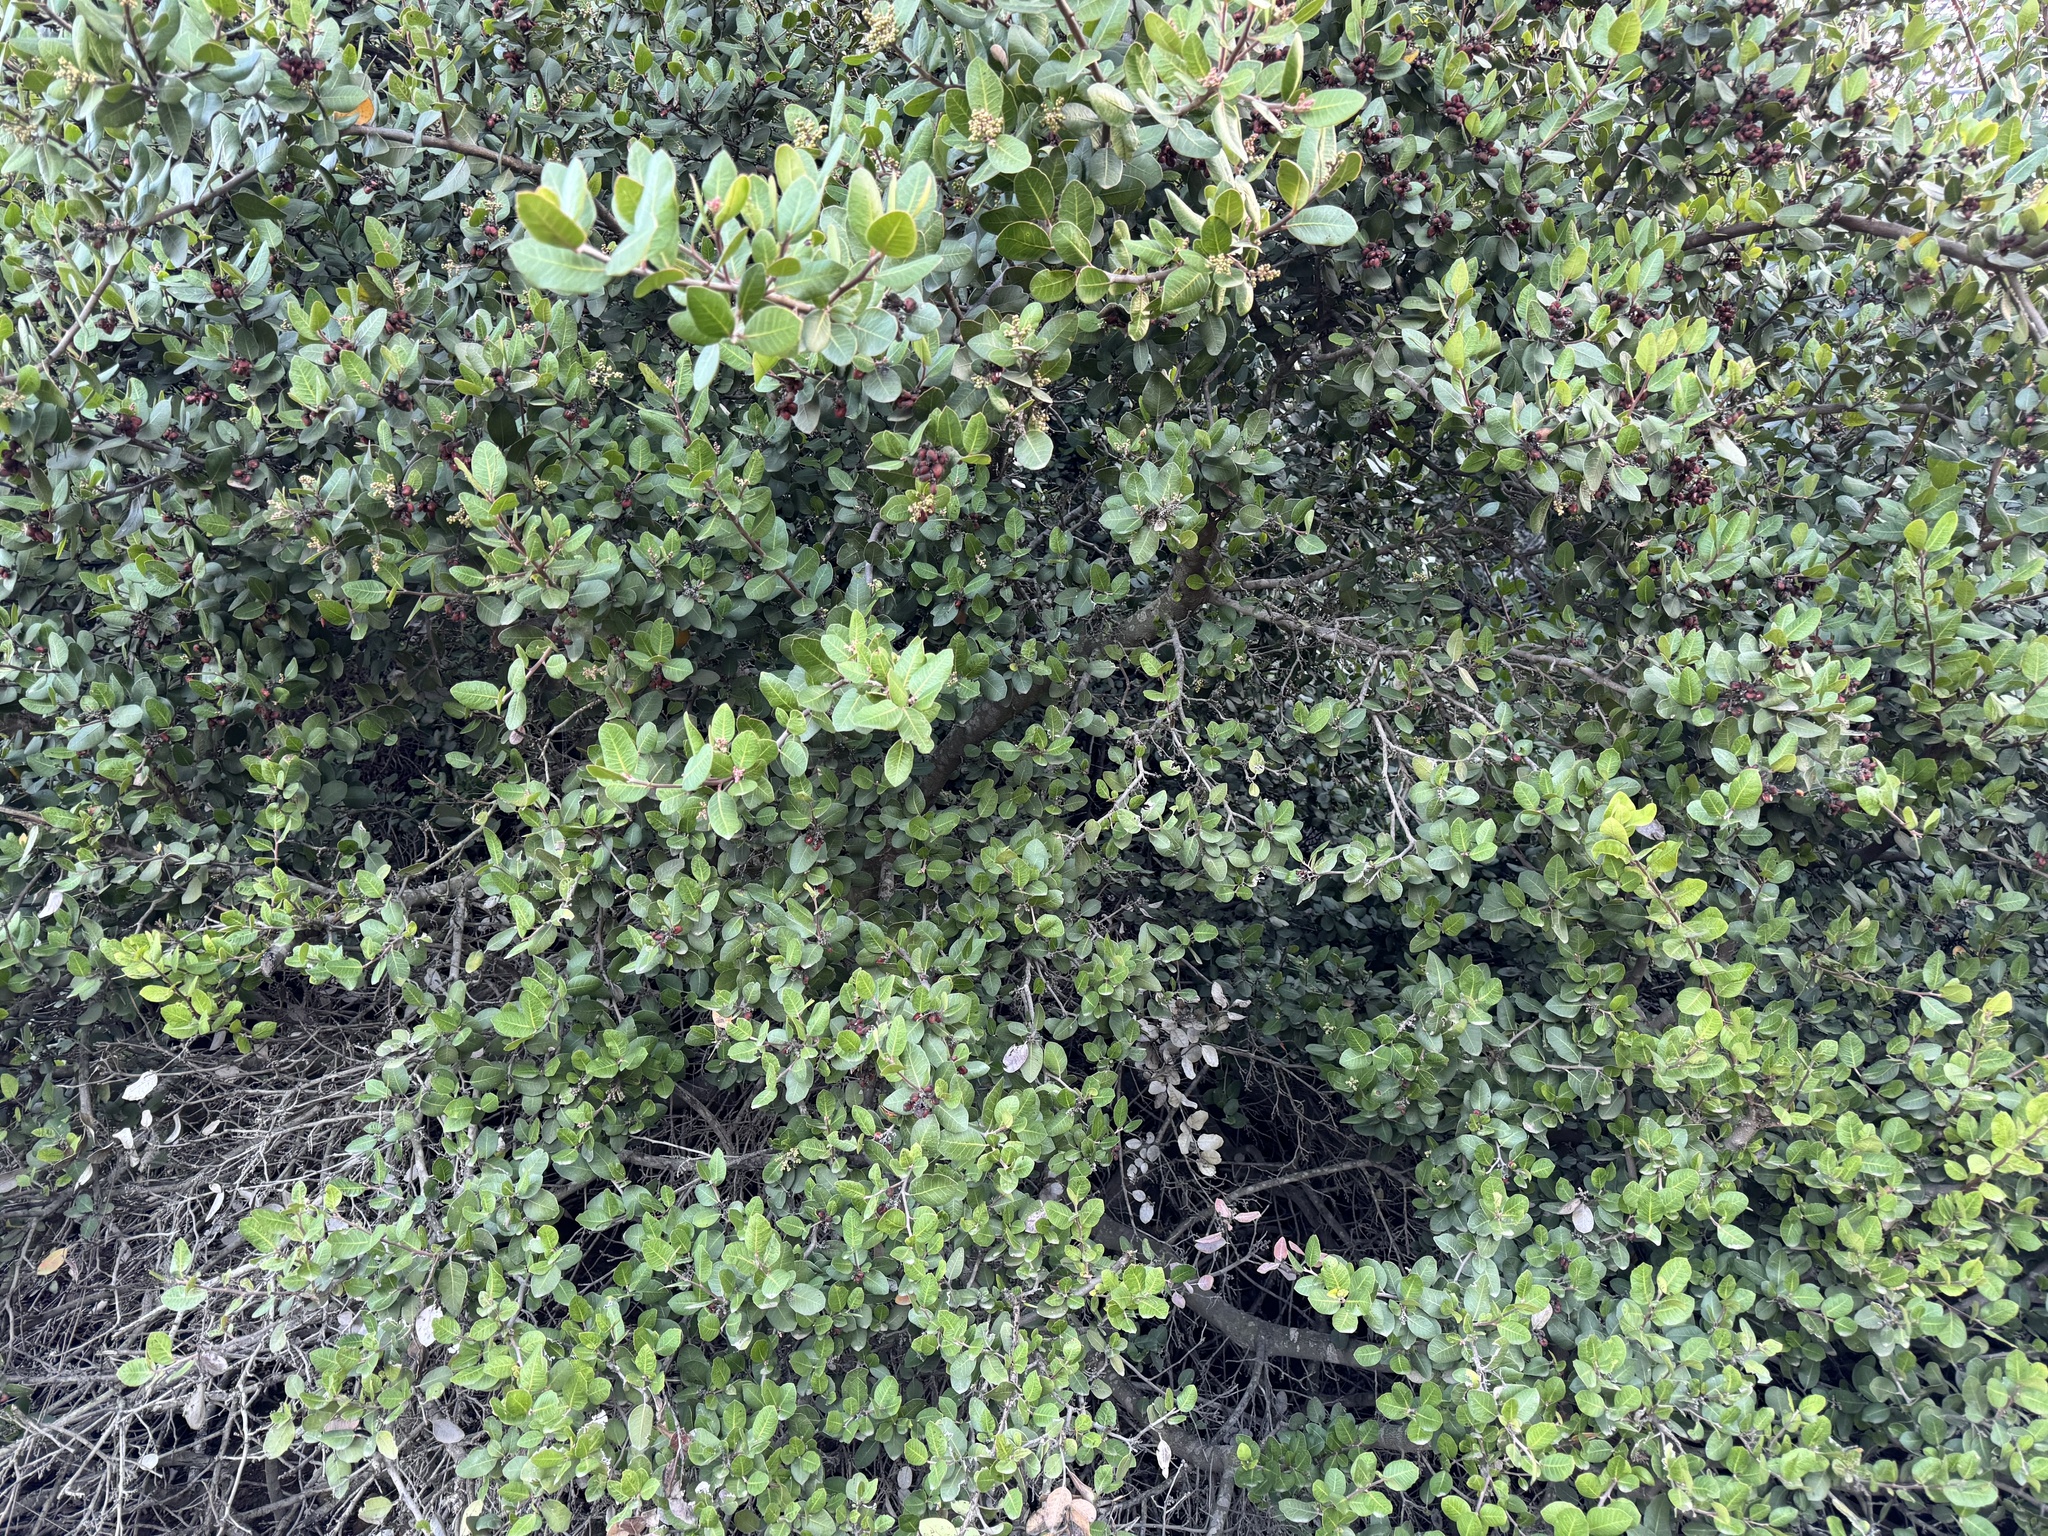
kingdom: Plantae
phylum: Tracheophyta
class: Magnoliopsida
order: Sapindales
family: Anacardiaceae
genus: Rhus
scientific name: Rhus integrifolia
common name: Lemonade sumac
